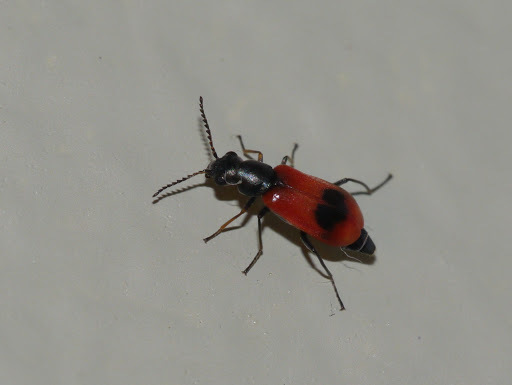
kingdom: Animalia
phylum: Arthropoda
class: Insecta
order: Coleoptera
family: Melyridae
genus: Anthocomus
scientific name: Anthocomus equestris
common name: Black-banded soft-winged flower beetle
